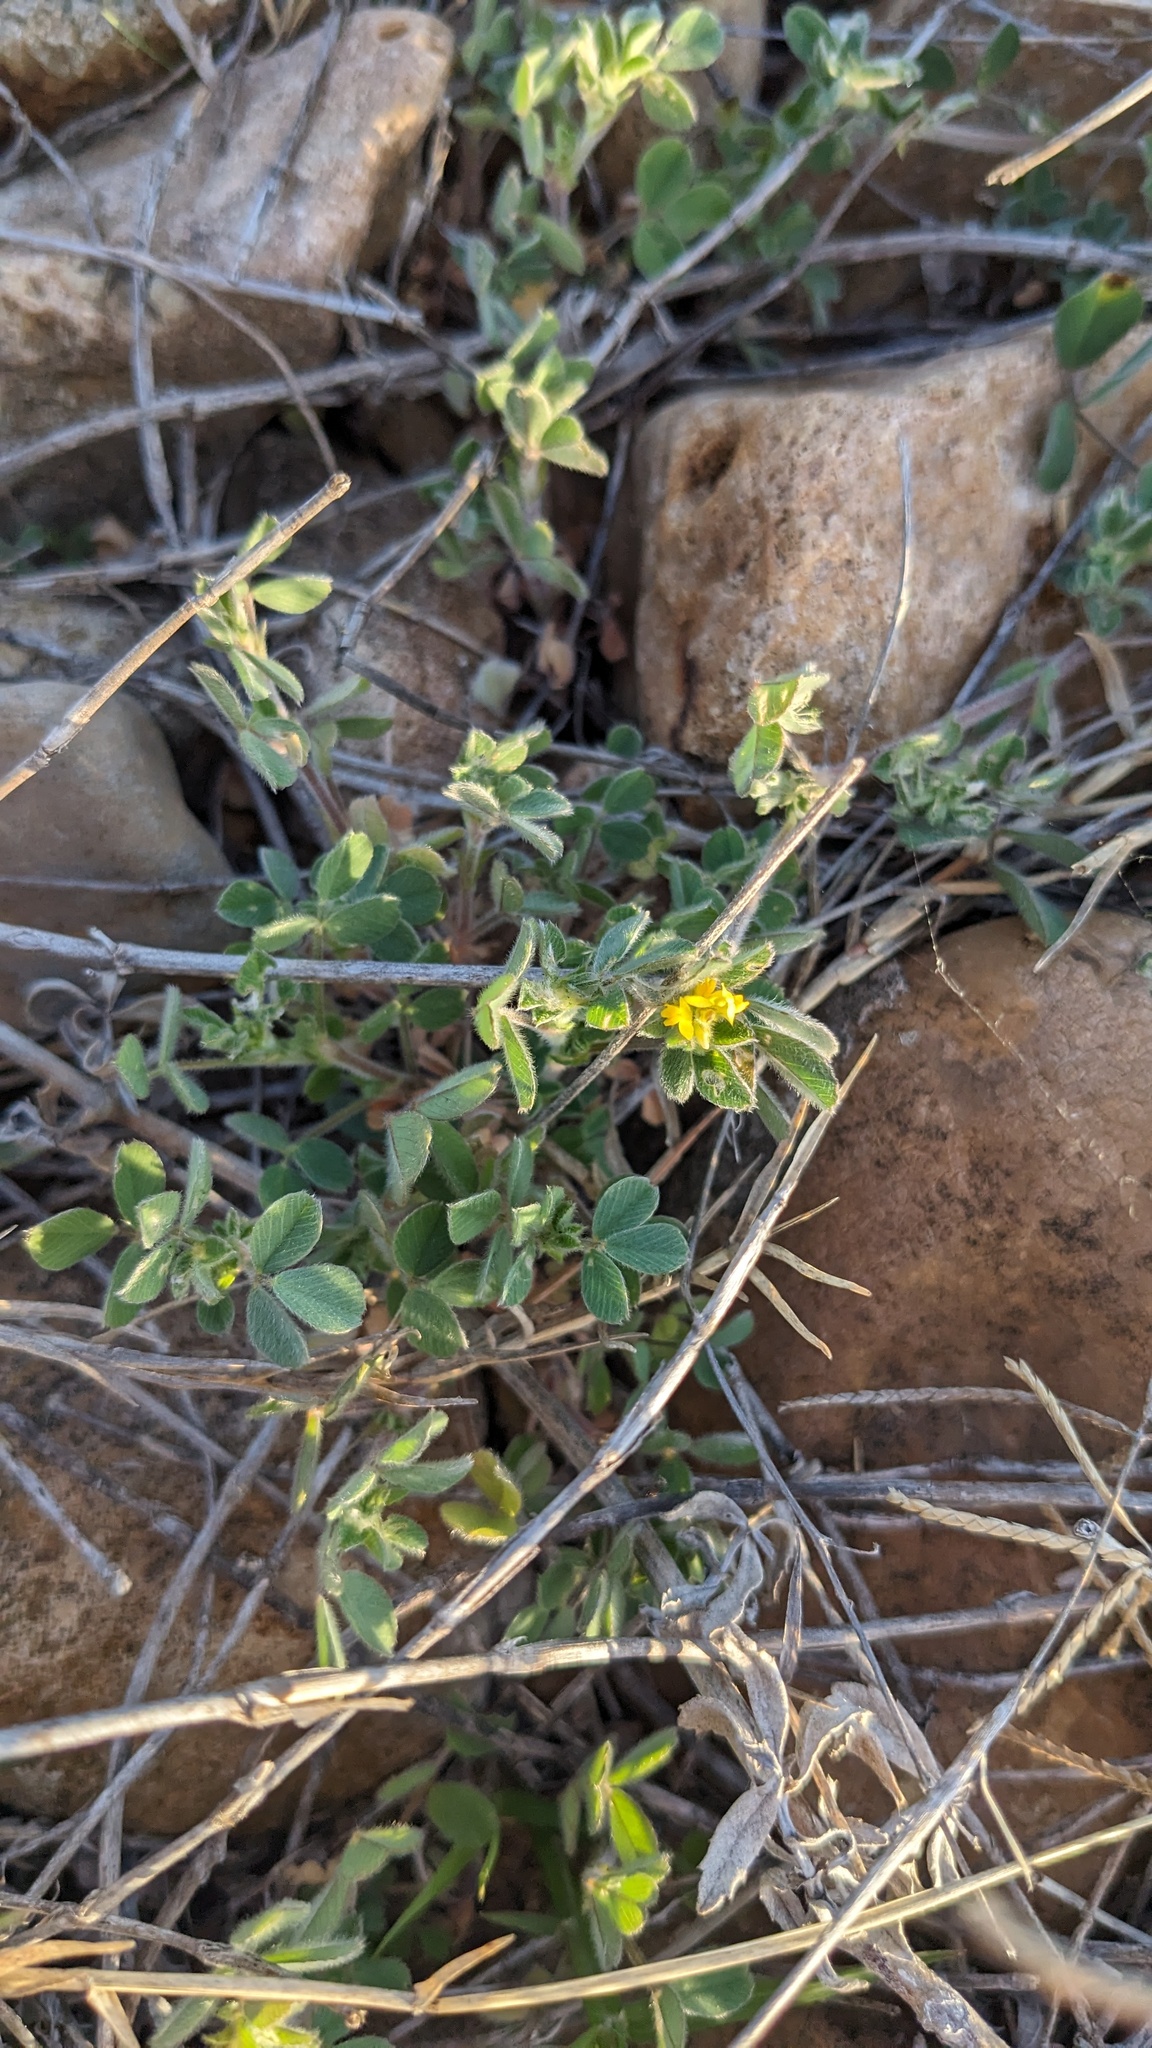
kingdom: Plantae
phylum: Tracheophyta
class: Magnoliopsida
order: Fabales
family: Fabaceae
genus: Medicago
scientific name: Medicago minima
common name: Little bur-clover
